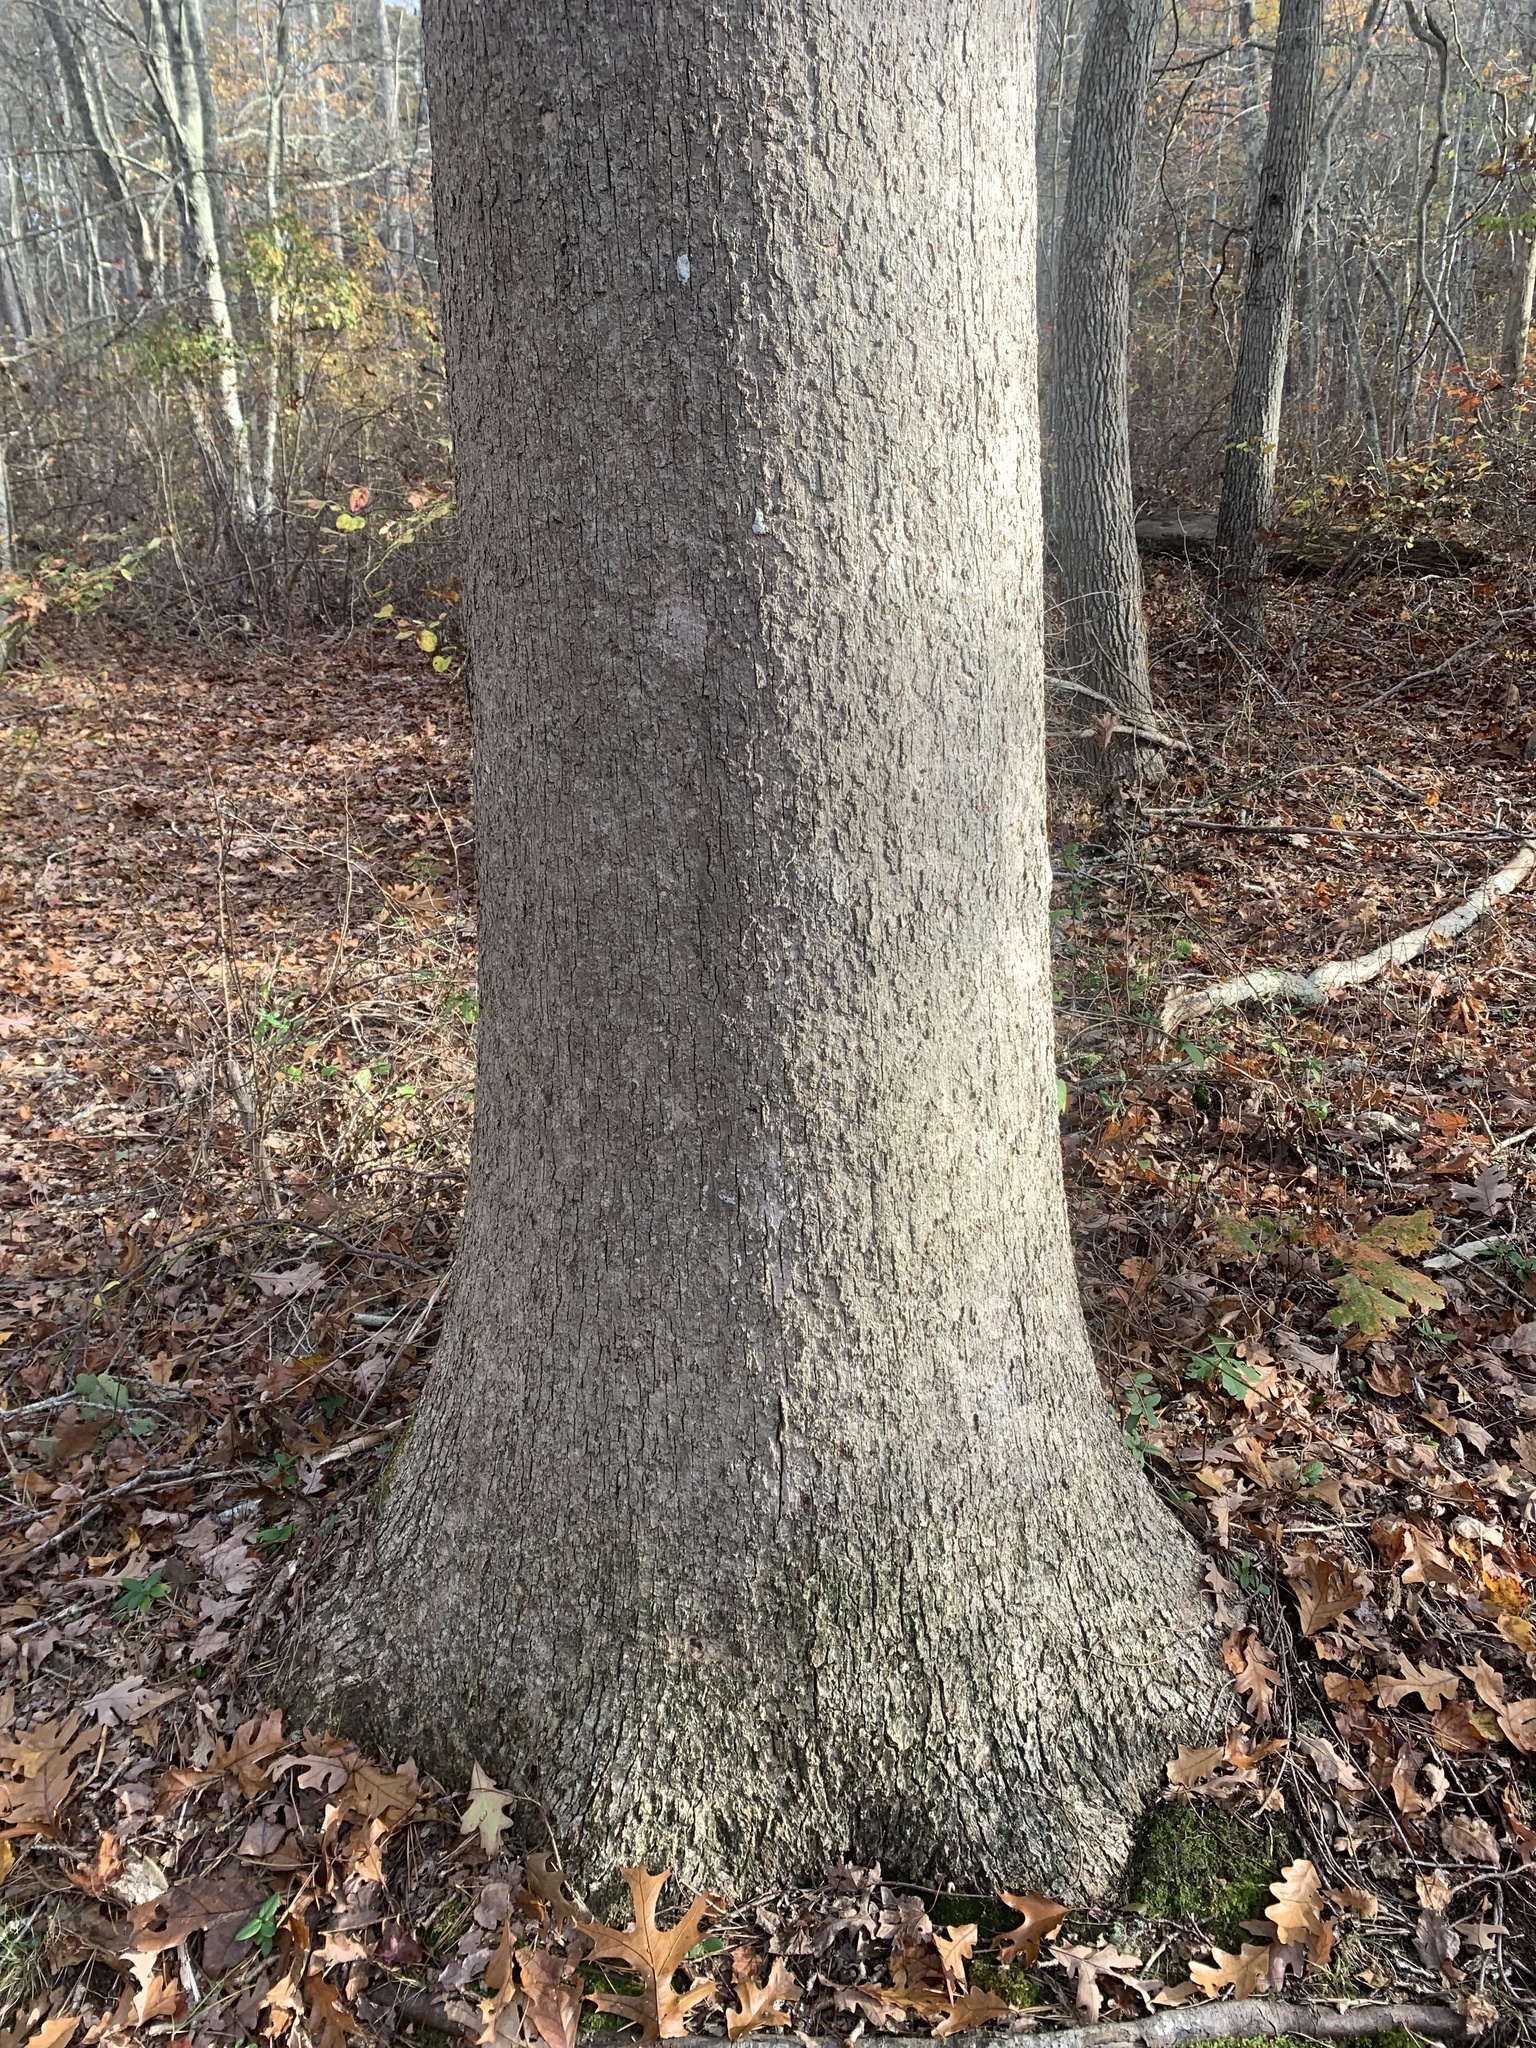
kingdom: Plantae
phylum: Tracheophyta
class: Magnoliopsida
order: Fagales
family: Fagaceae
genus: Quercus
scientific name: Quercus alba
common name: White oak
